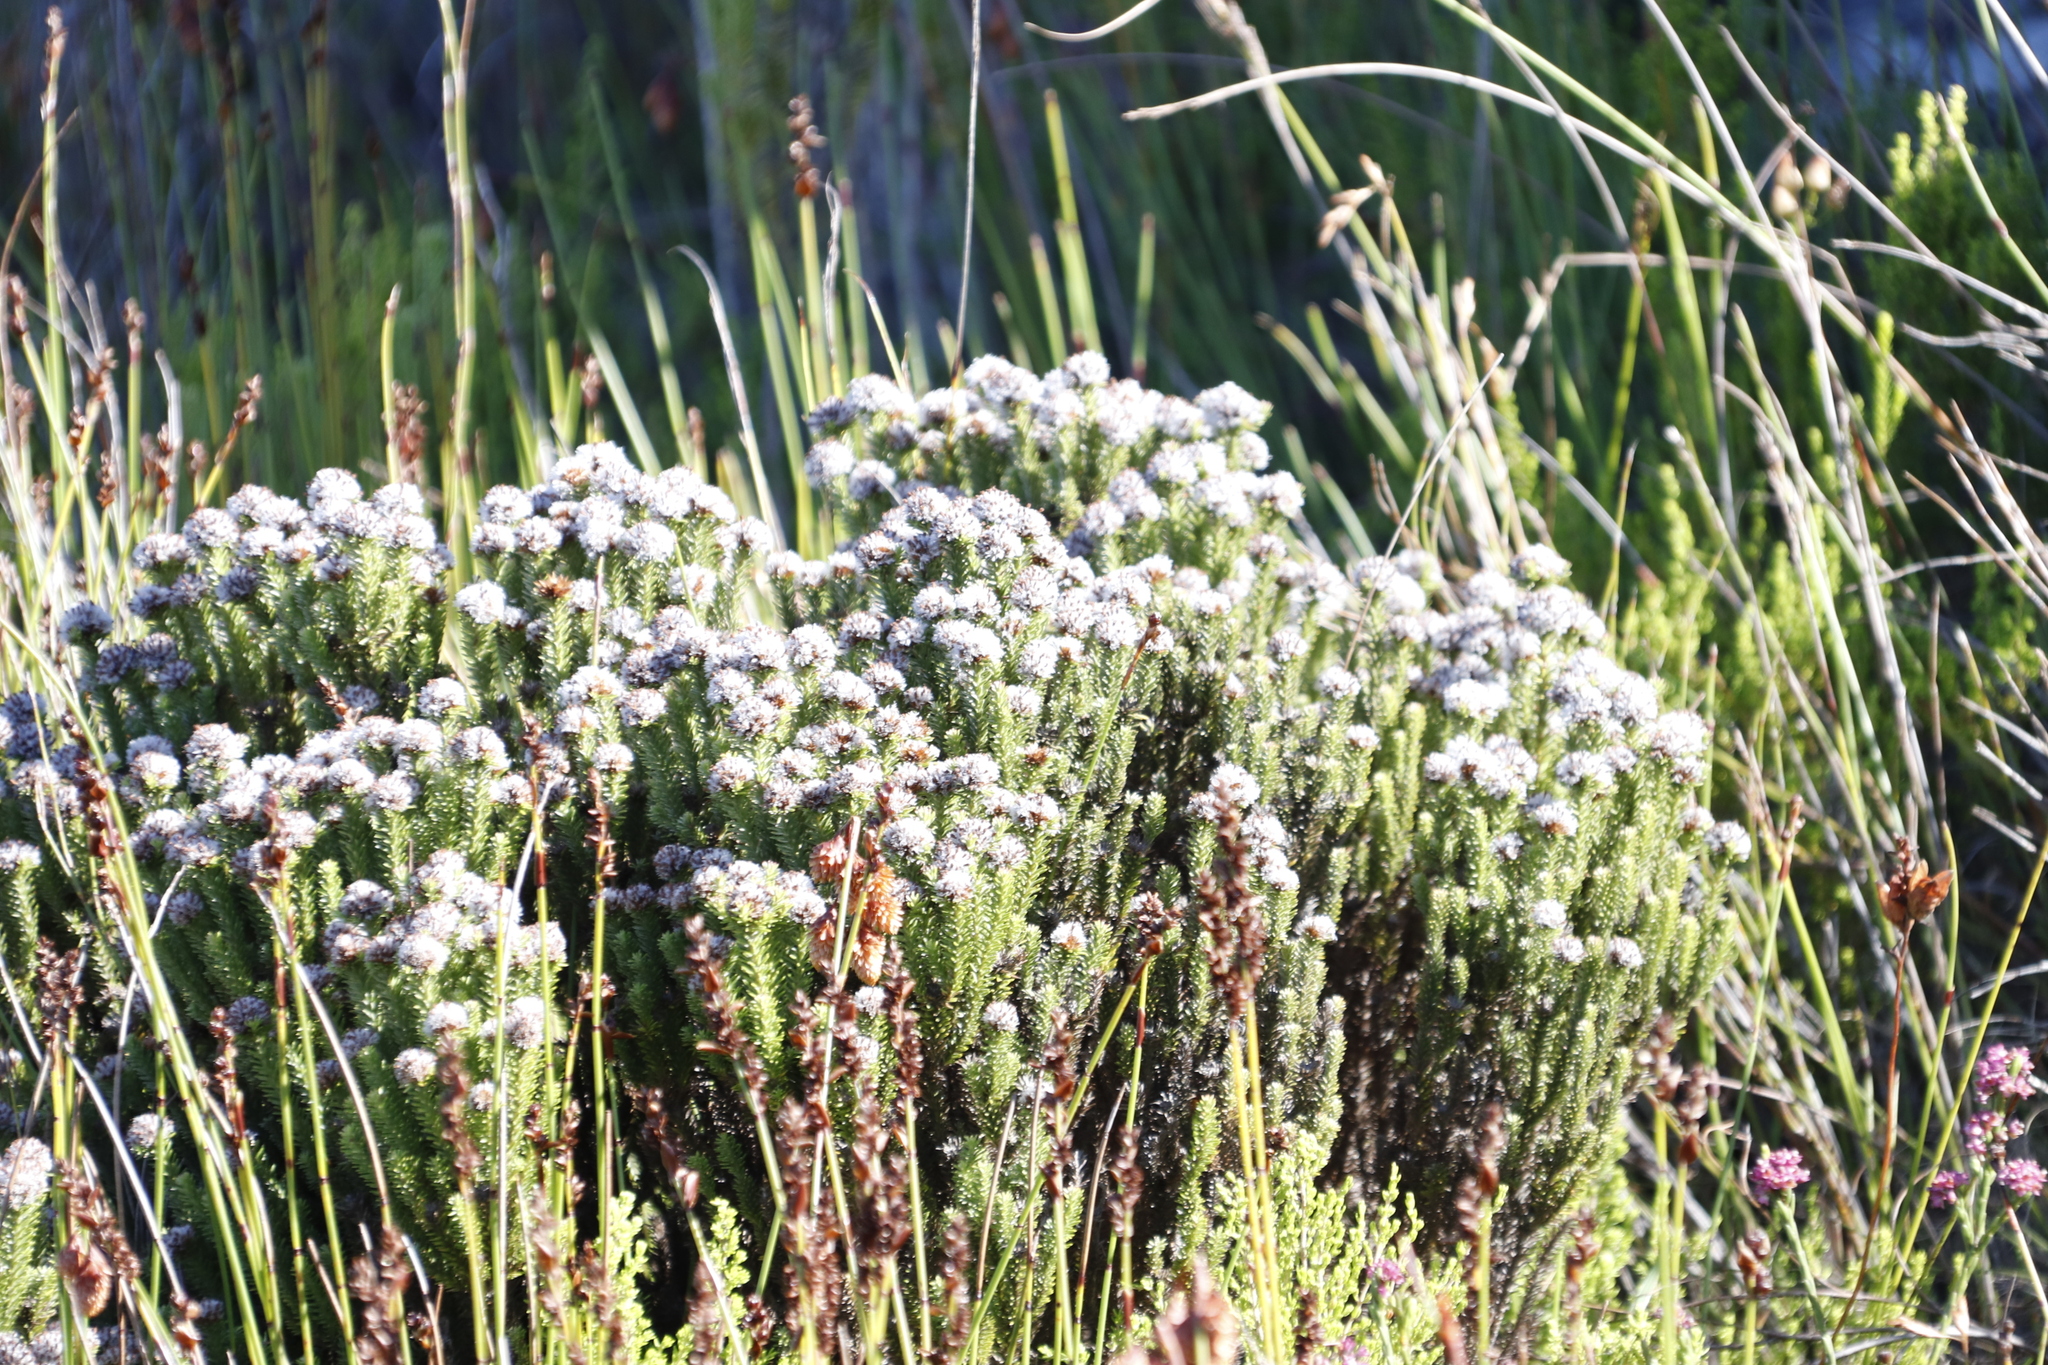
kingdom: Plantae
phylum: Tracheophyta
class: Magnoliopsida
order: Asterales
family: Asteraceae
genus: Stoebe
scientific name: Stoebe rosea
